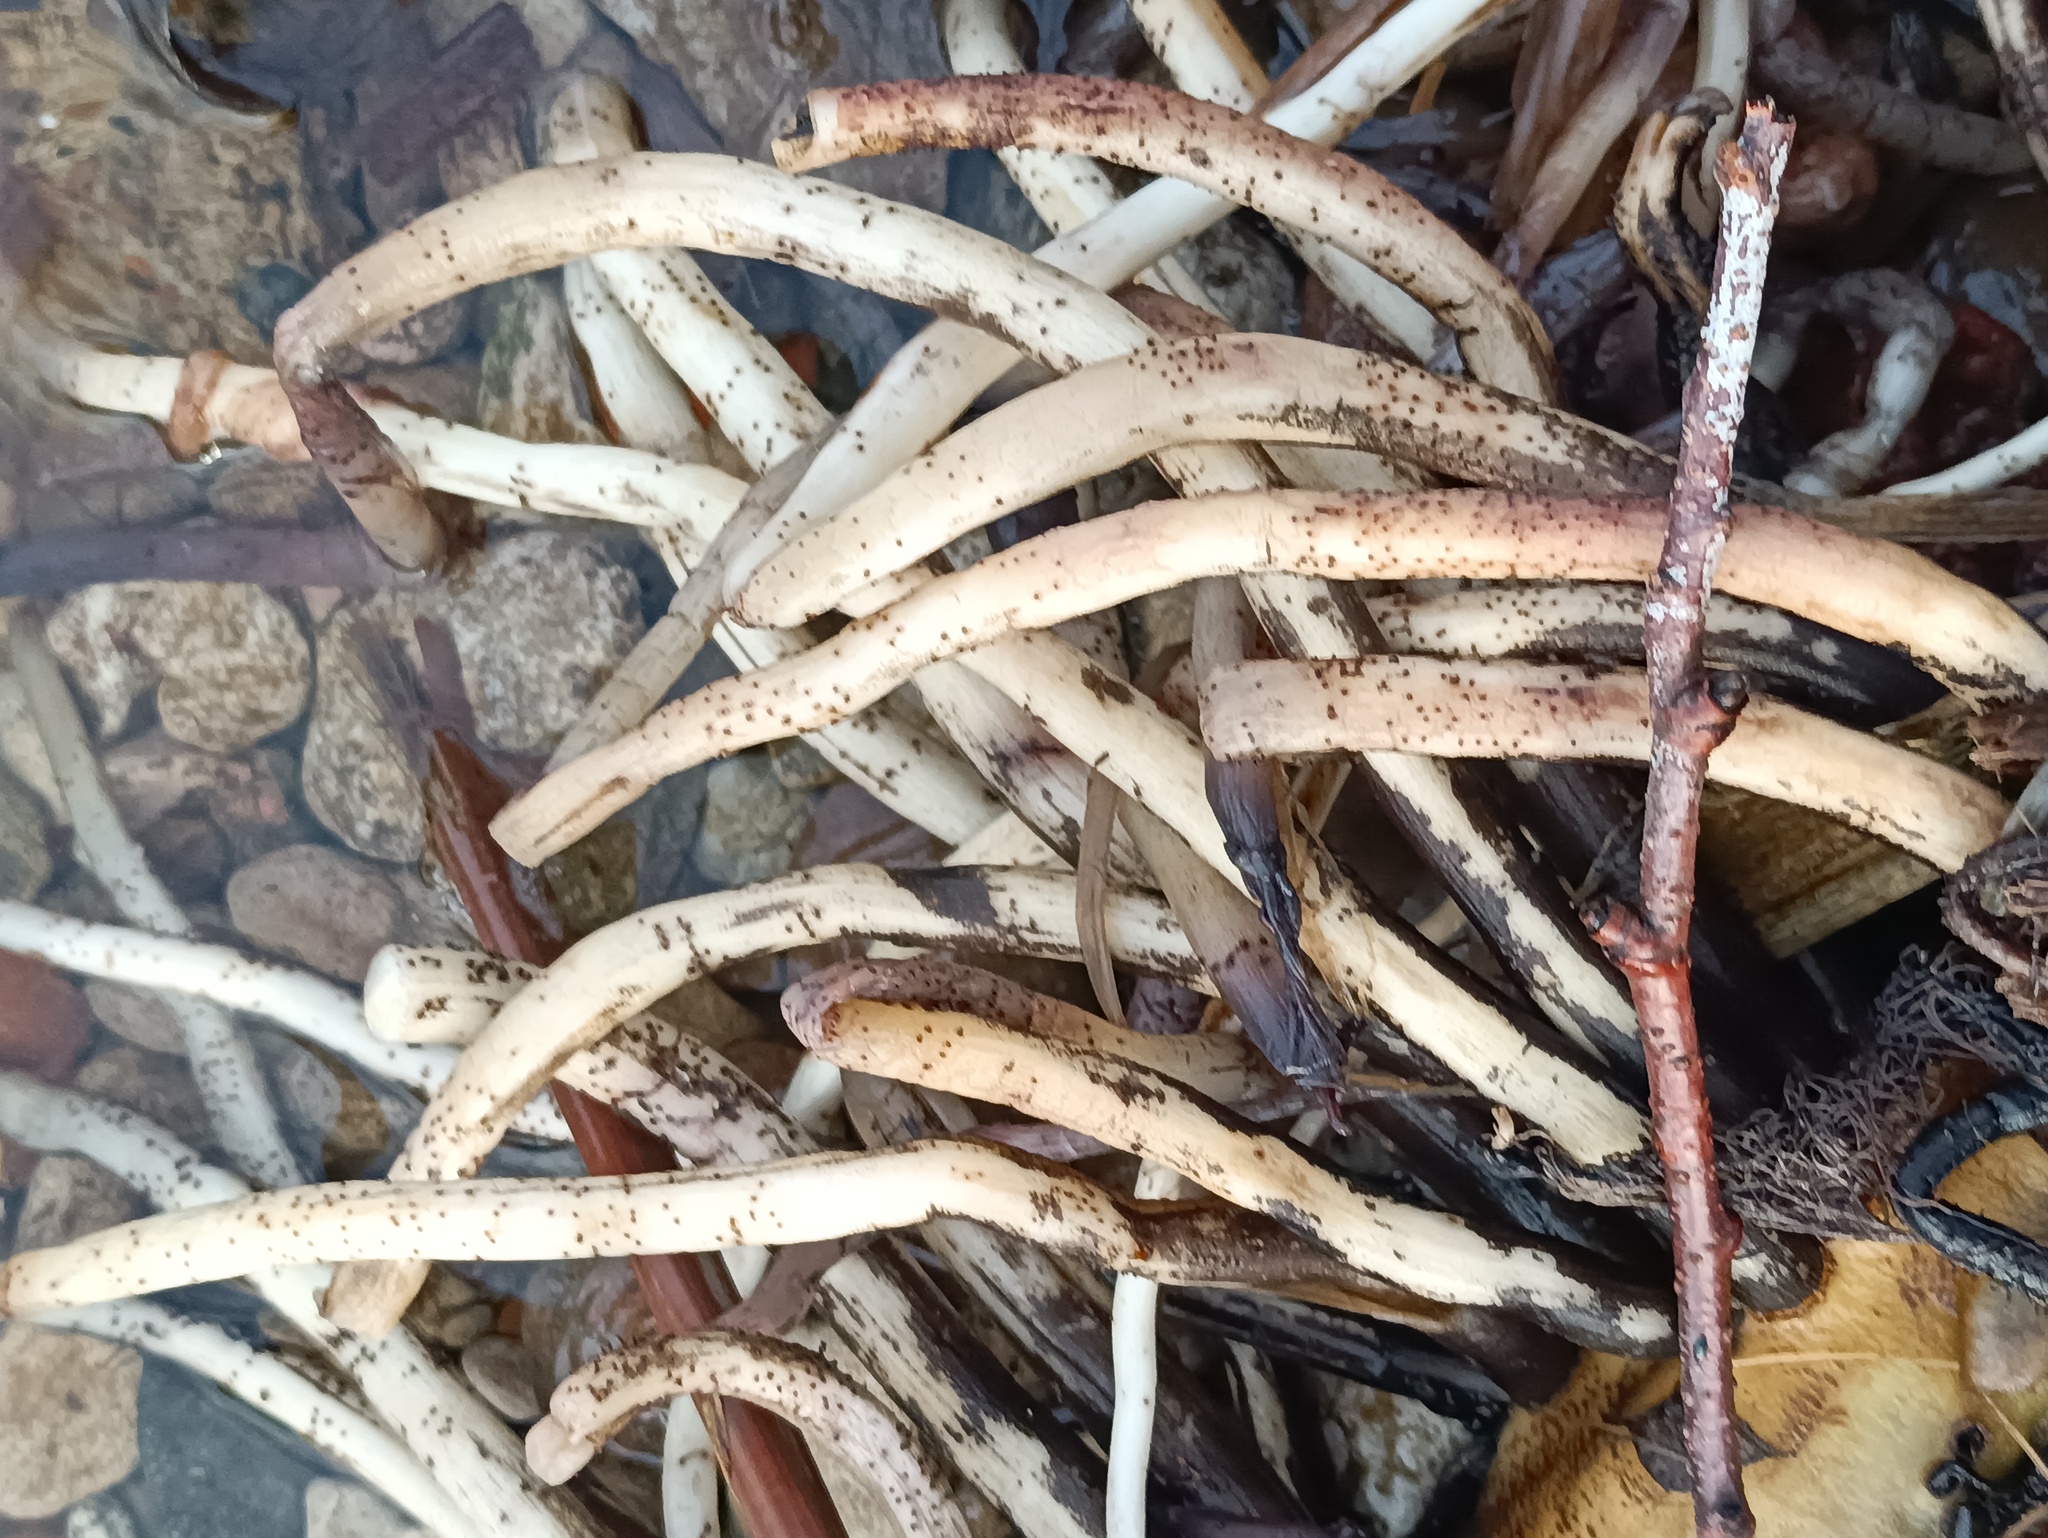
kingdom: Plantae
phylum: Tracheophyta
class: Magnoliopsida
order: Nymphaeales
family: Nymphaeaceae
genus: Nuphar
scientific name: Nuphar lutea
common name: Yellow water-lily
